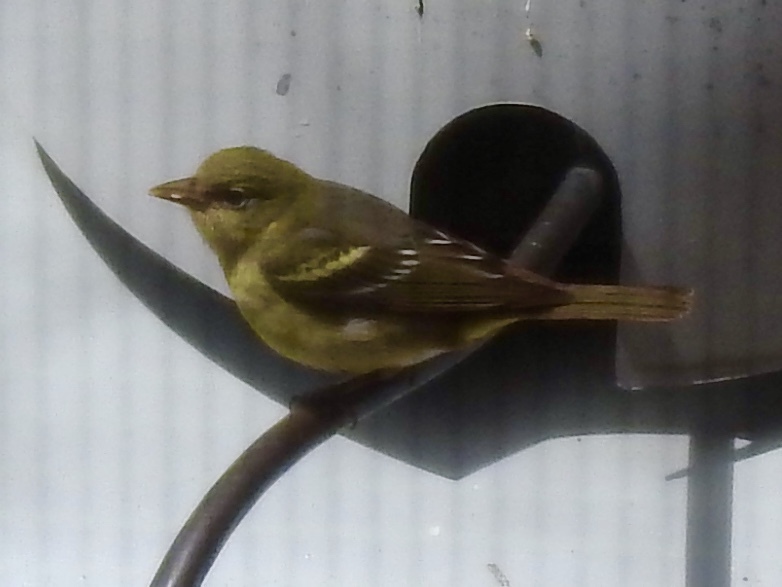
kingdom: Animalia
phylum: Chordata
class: Aves
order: Passeriformes
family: Cardinalidae
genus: Piranga
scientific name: Piranga ludoviciana
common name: Western tanager
